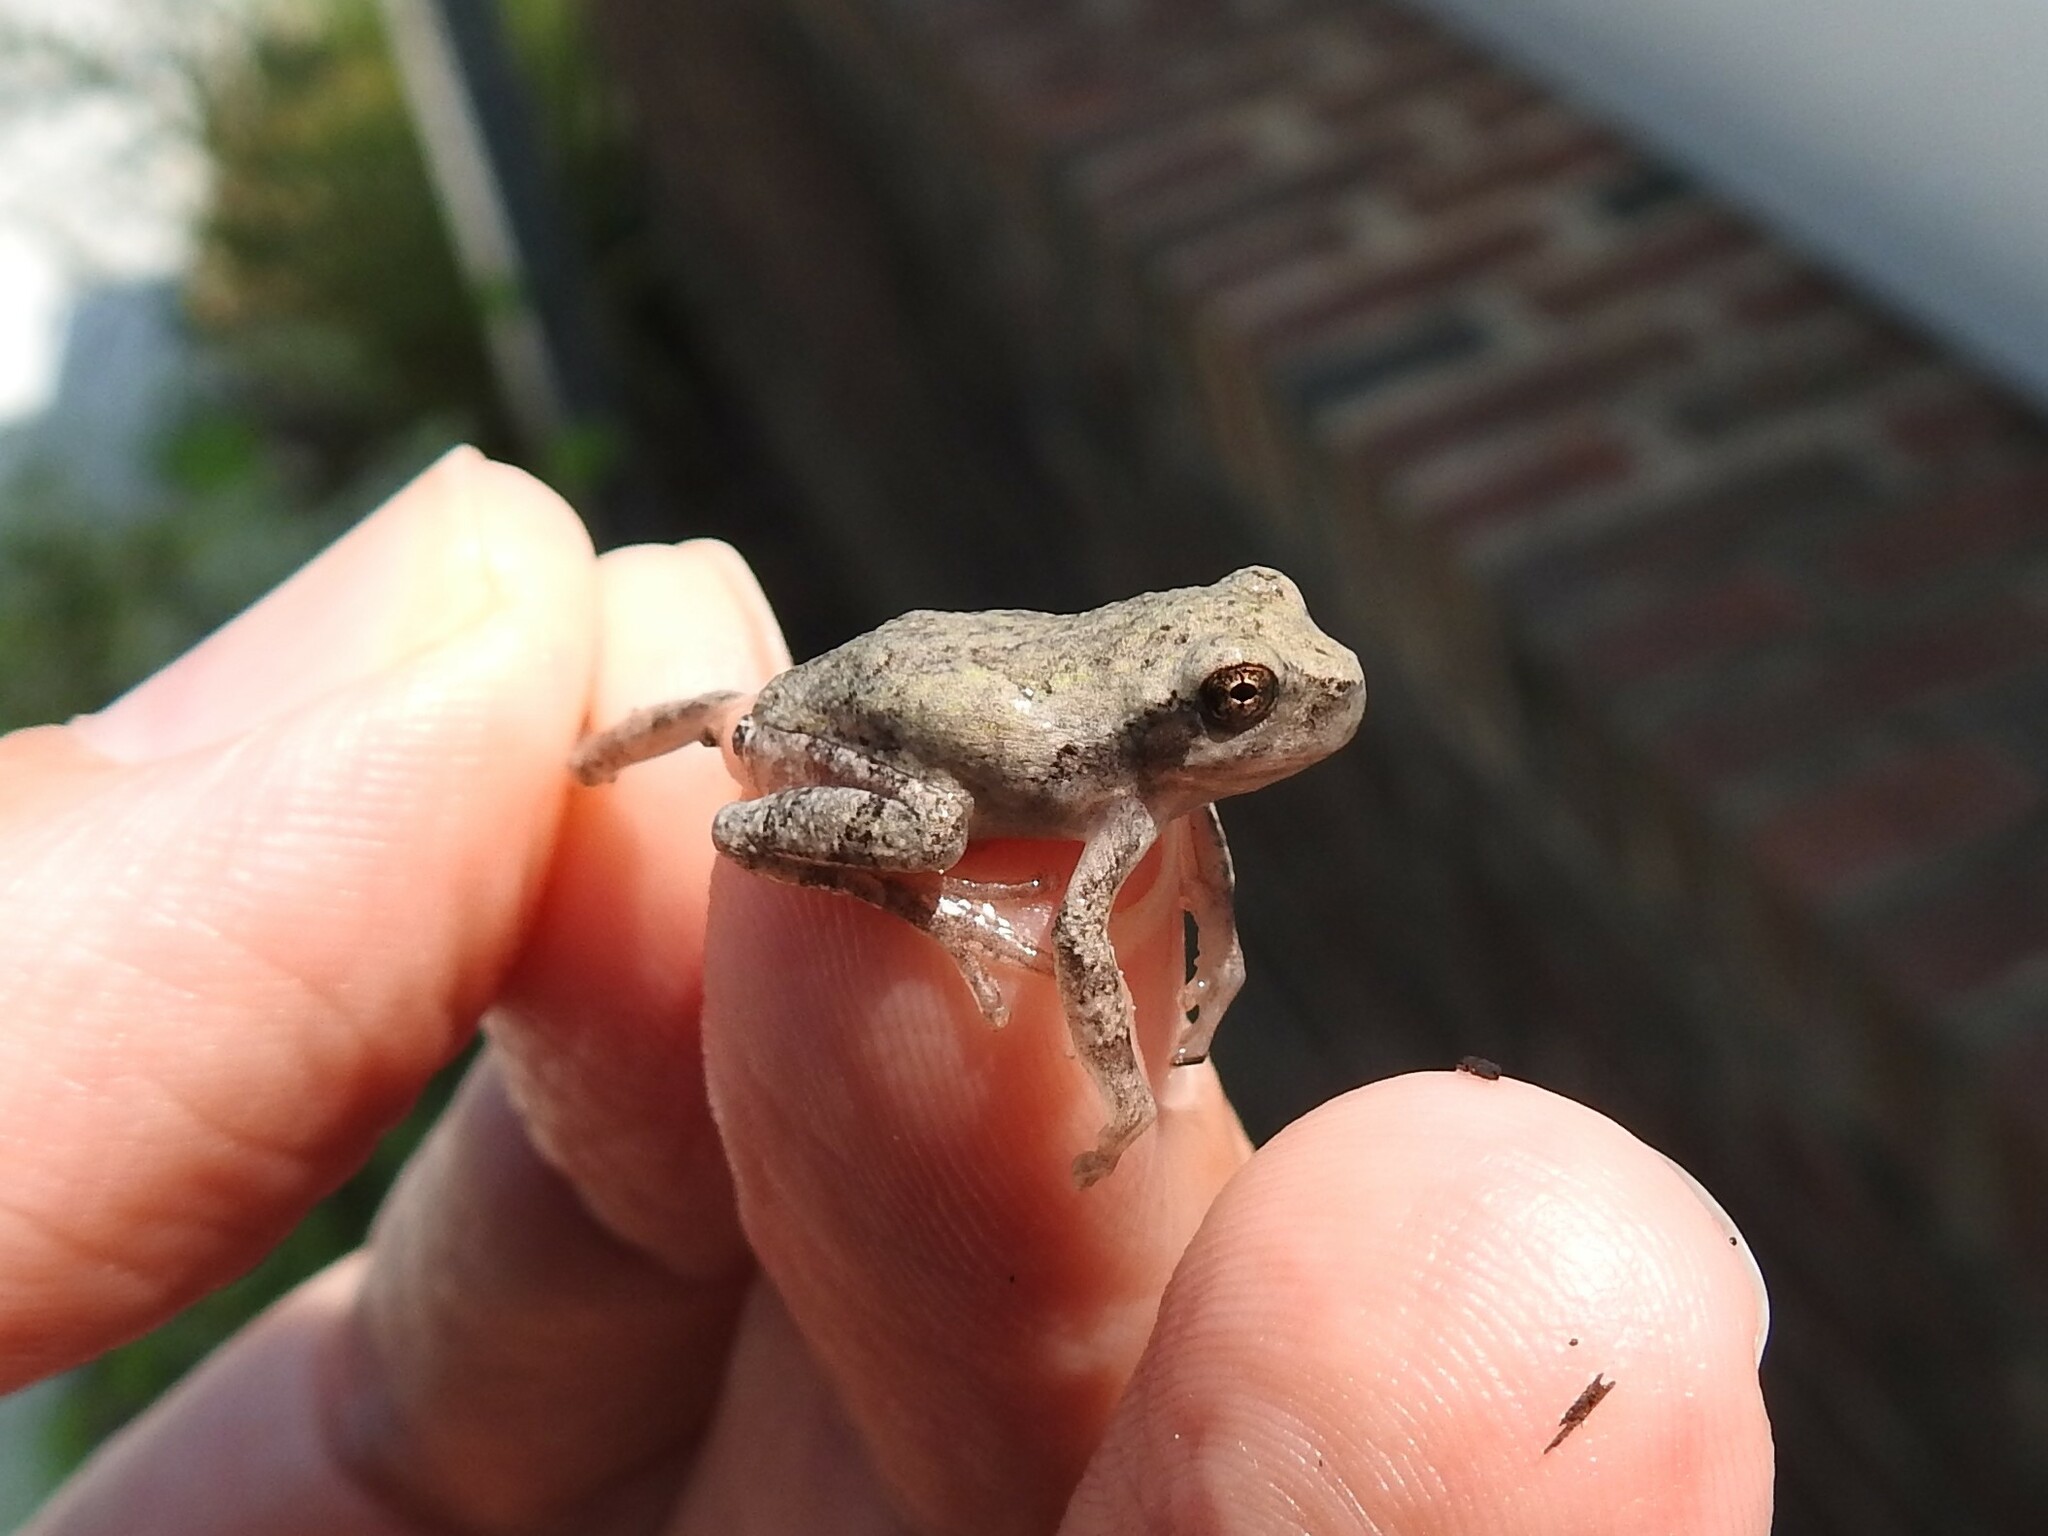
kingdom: Animalia
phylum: Chordata
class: Amphibia
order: Anura
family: Hylidae
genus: Hyla
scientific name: Hyla
